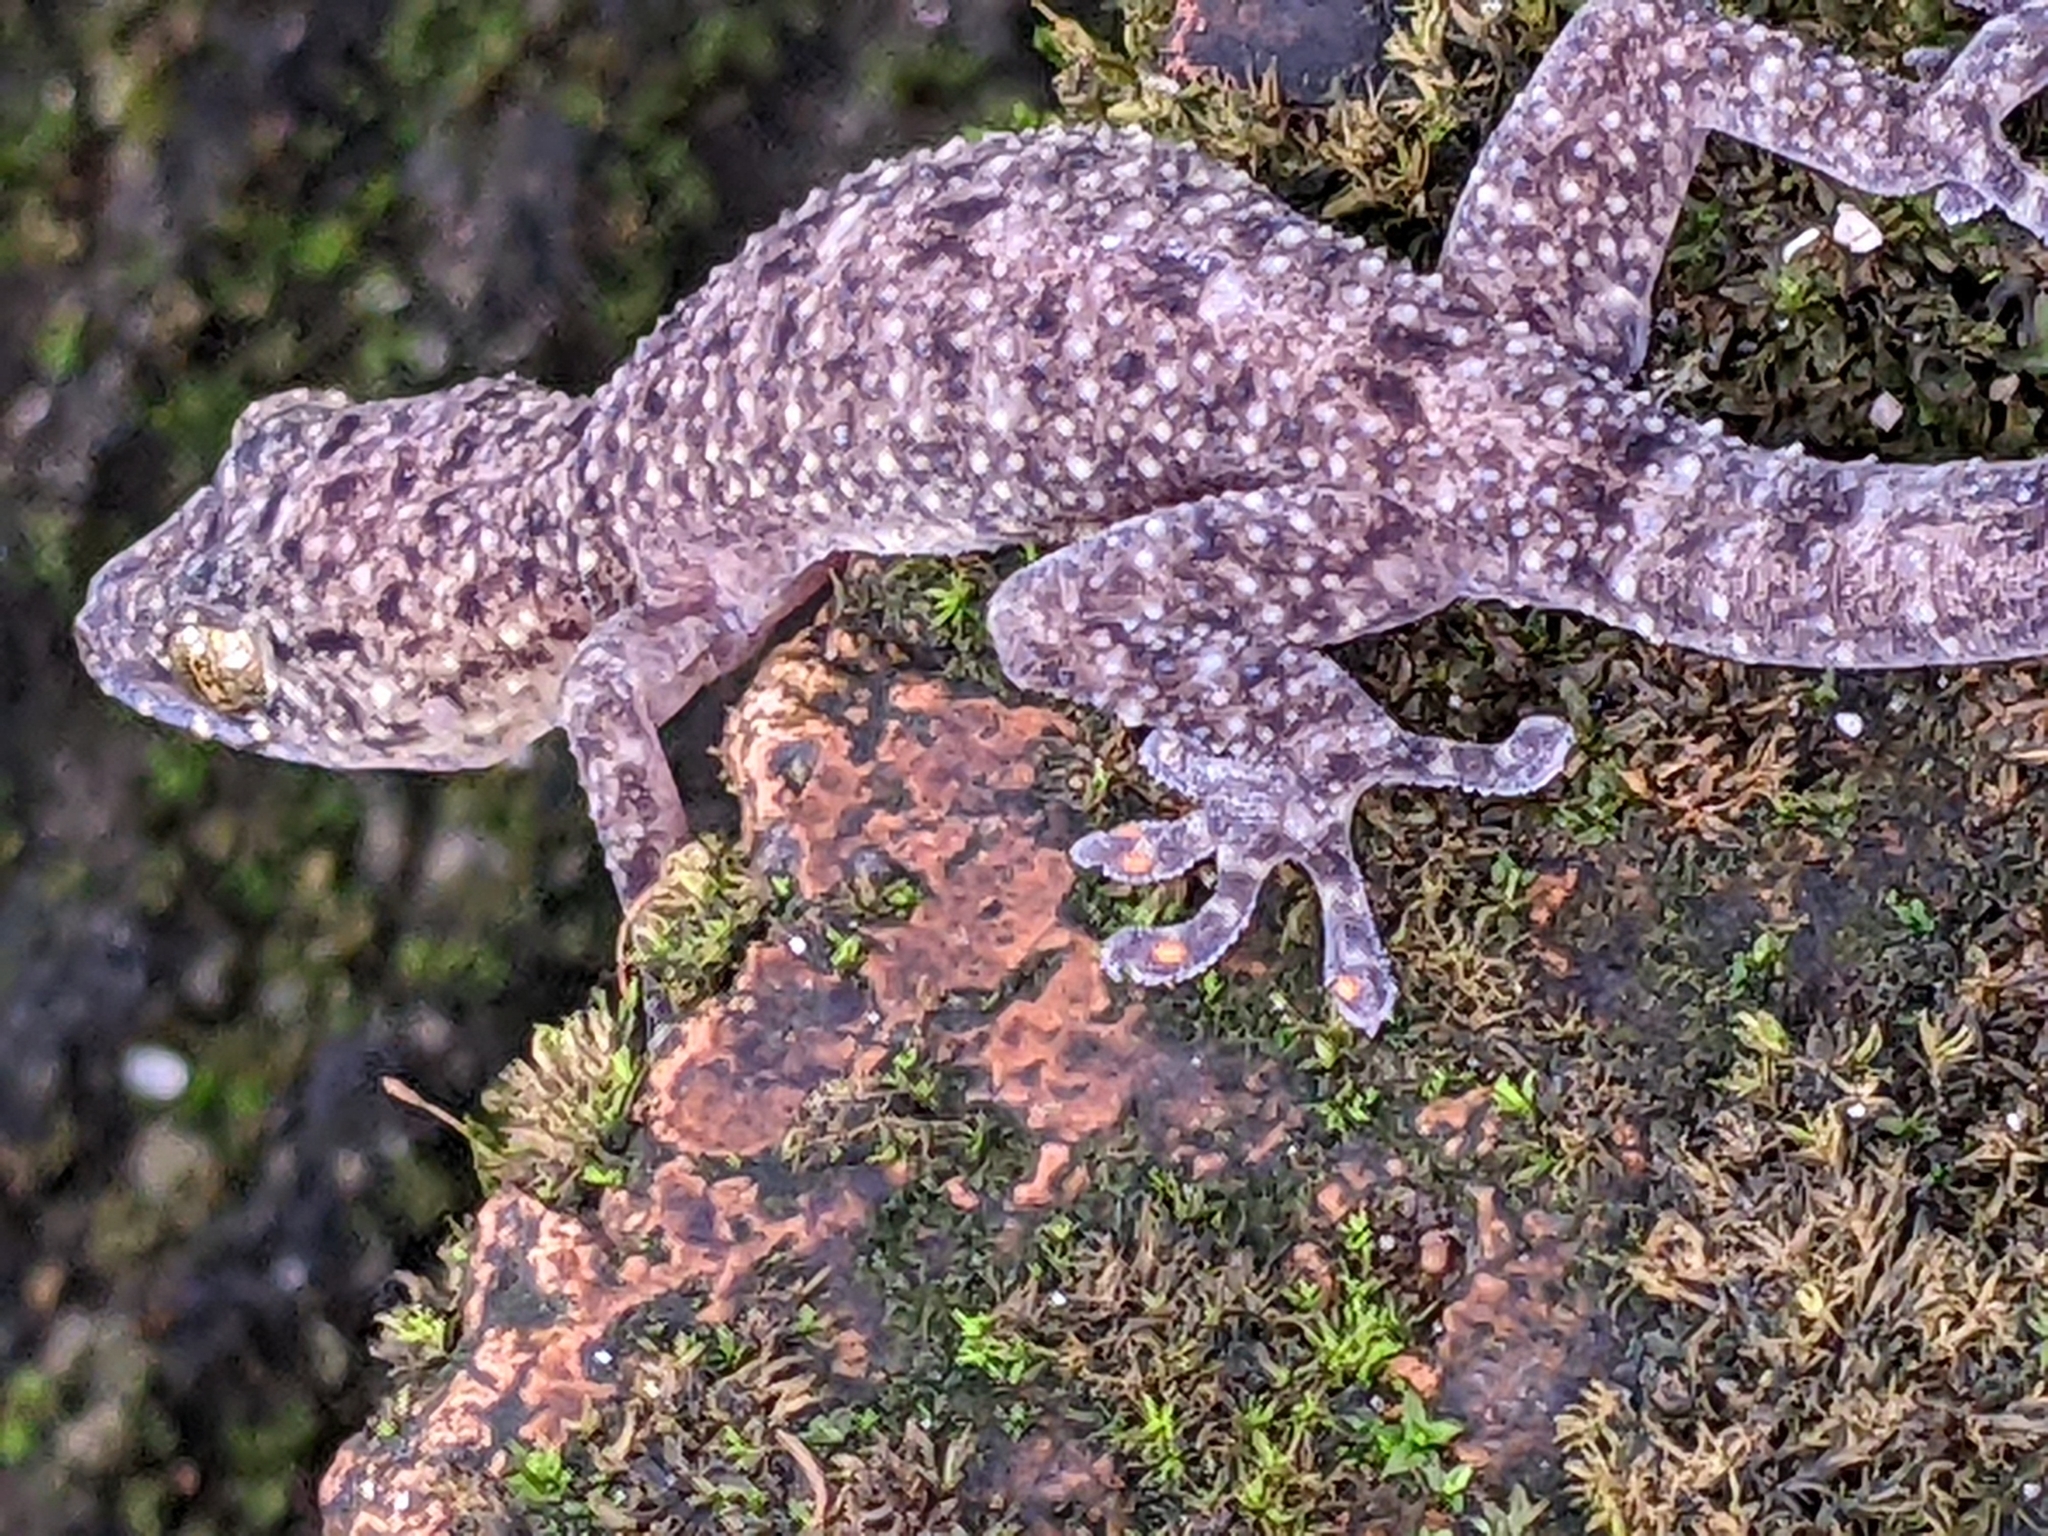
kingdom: Animalia
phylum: Chordata
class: Squamata
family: Gekkonidae
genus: Gekko
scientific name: Gekko monarchus
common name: Spotted house gecko
